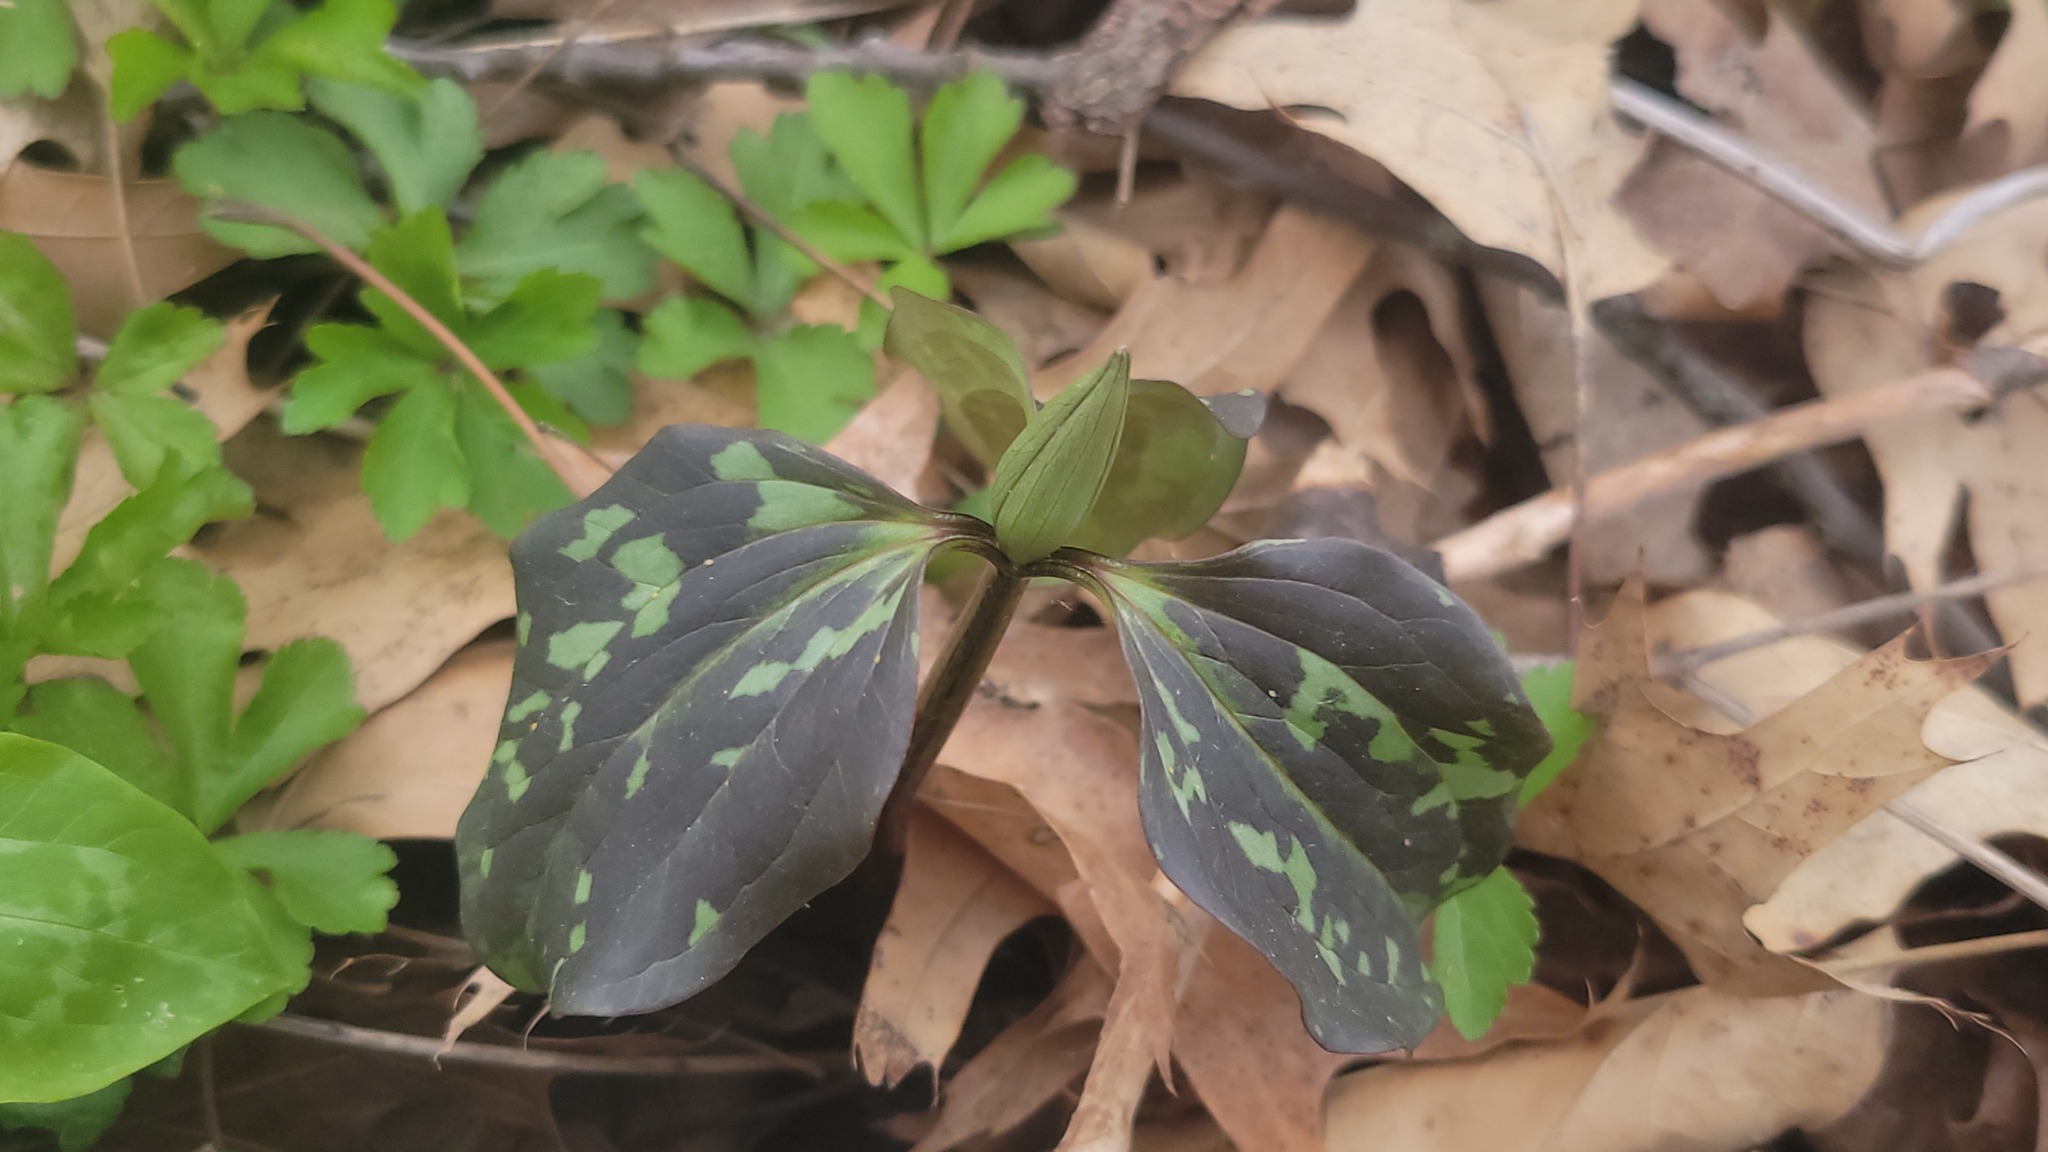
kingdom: Plantae
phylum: Tracheophyta
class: Liliopsida
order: Liliales
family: Melanthiaceae
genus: Trillium
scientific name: Trillium recurvatum
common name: Bloody butcher
